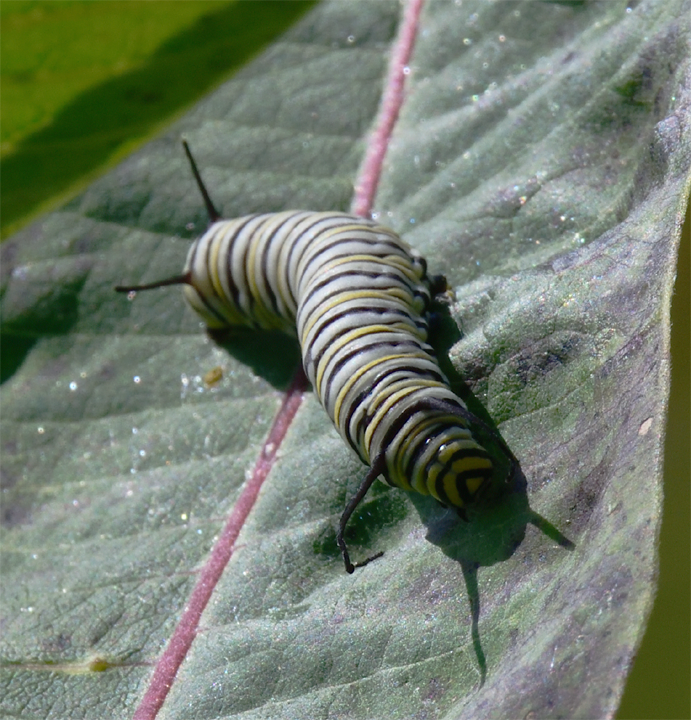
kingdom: Animalia
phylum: Arthropoda
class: Insecta
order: Lepidoptera
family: Nymphalidae
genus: Danaus
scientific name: Danaus plexippus
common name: Monarch
